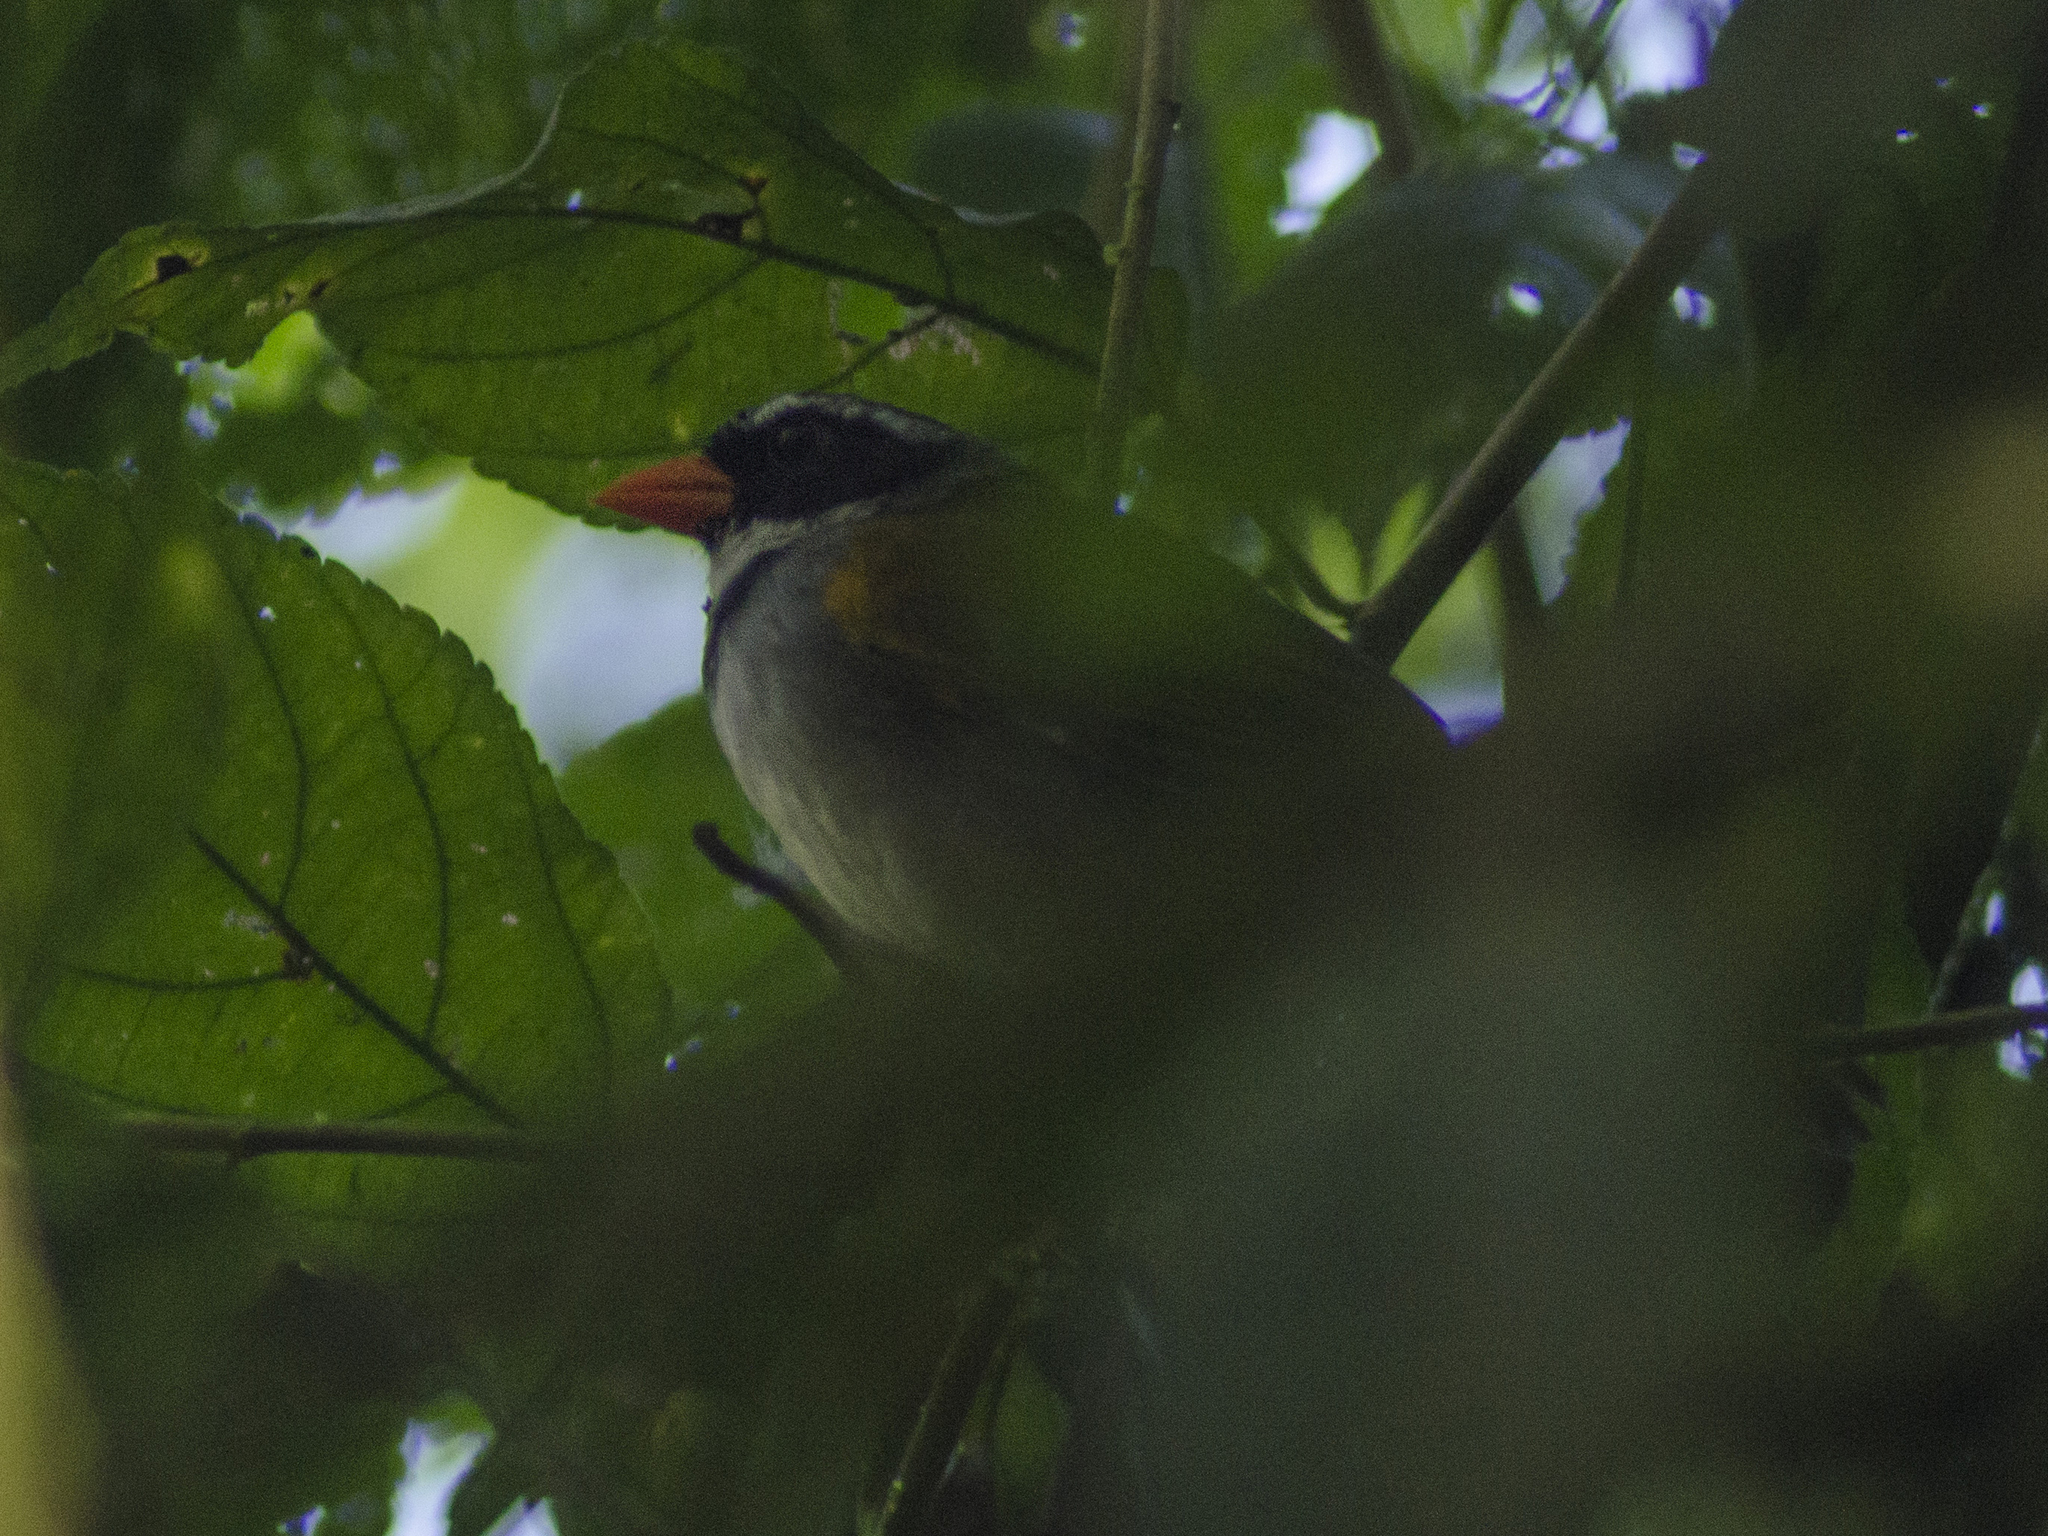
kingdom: Animalia
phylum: Chordata
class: Aves
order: Passeriformes
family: Passerellidae
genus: Arremon
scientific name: Arremon aurantiirostris
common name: Orange-billed sparrow
